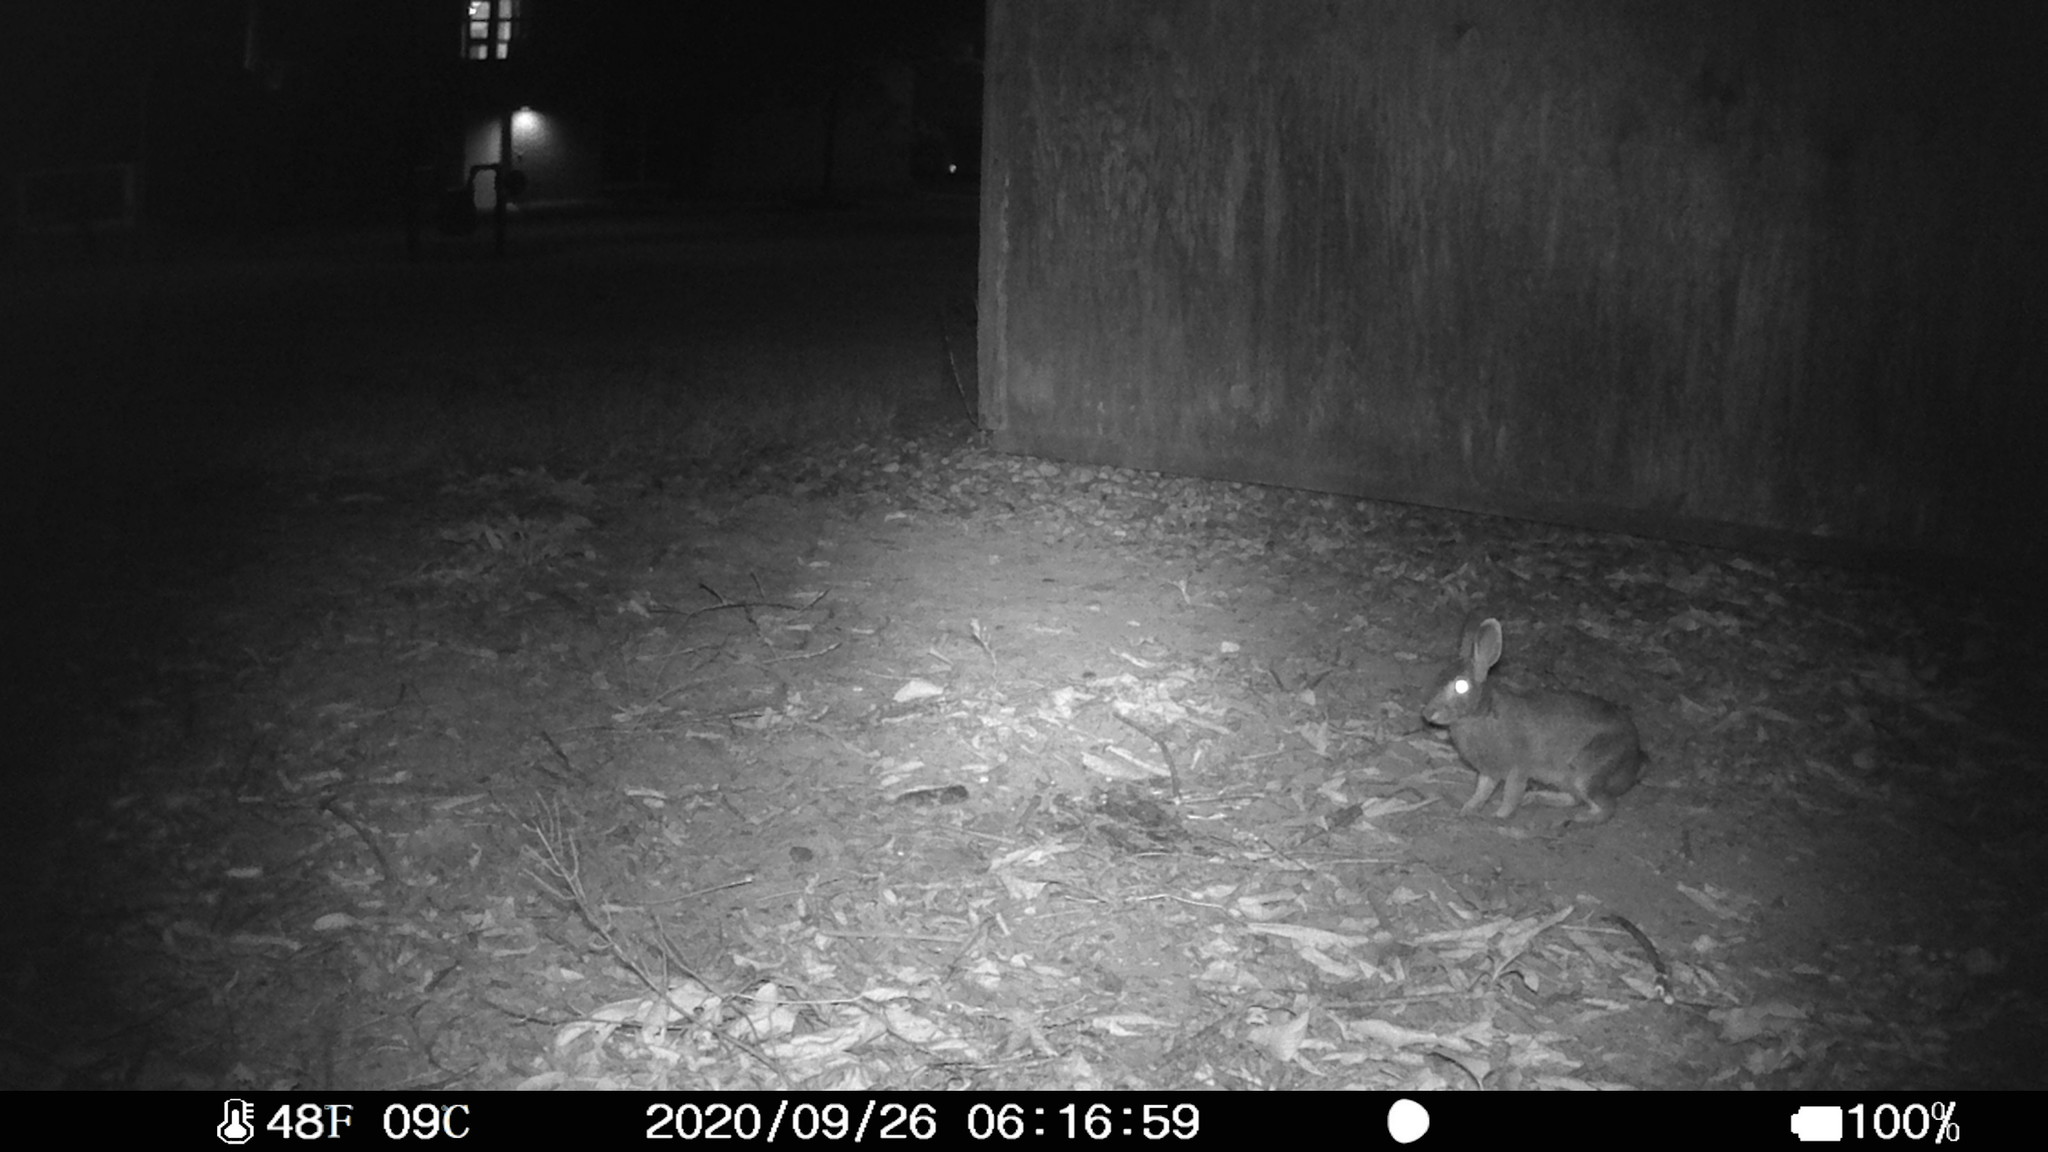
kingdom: Animalia
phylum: Chordata
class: Mammalia
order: Lagomorpha
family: Leporidae
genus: Sylvilagus
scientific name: Sylvilagus floridanus
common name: Eastern cottontail
